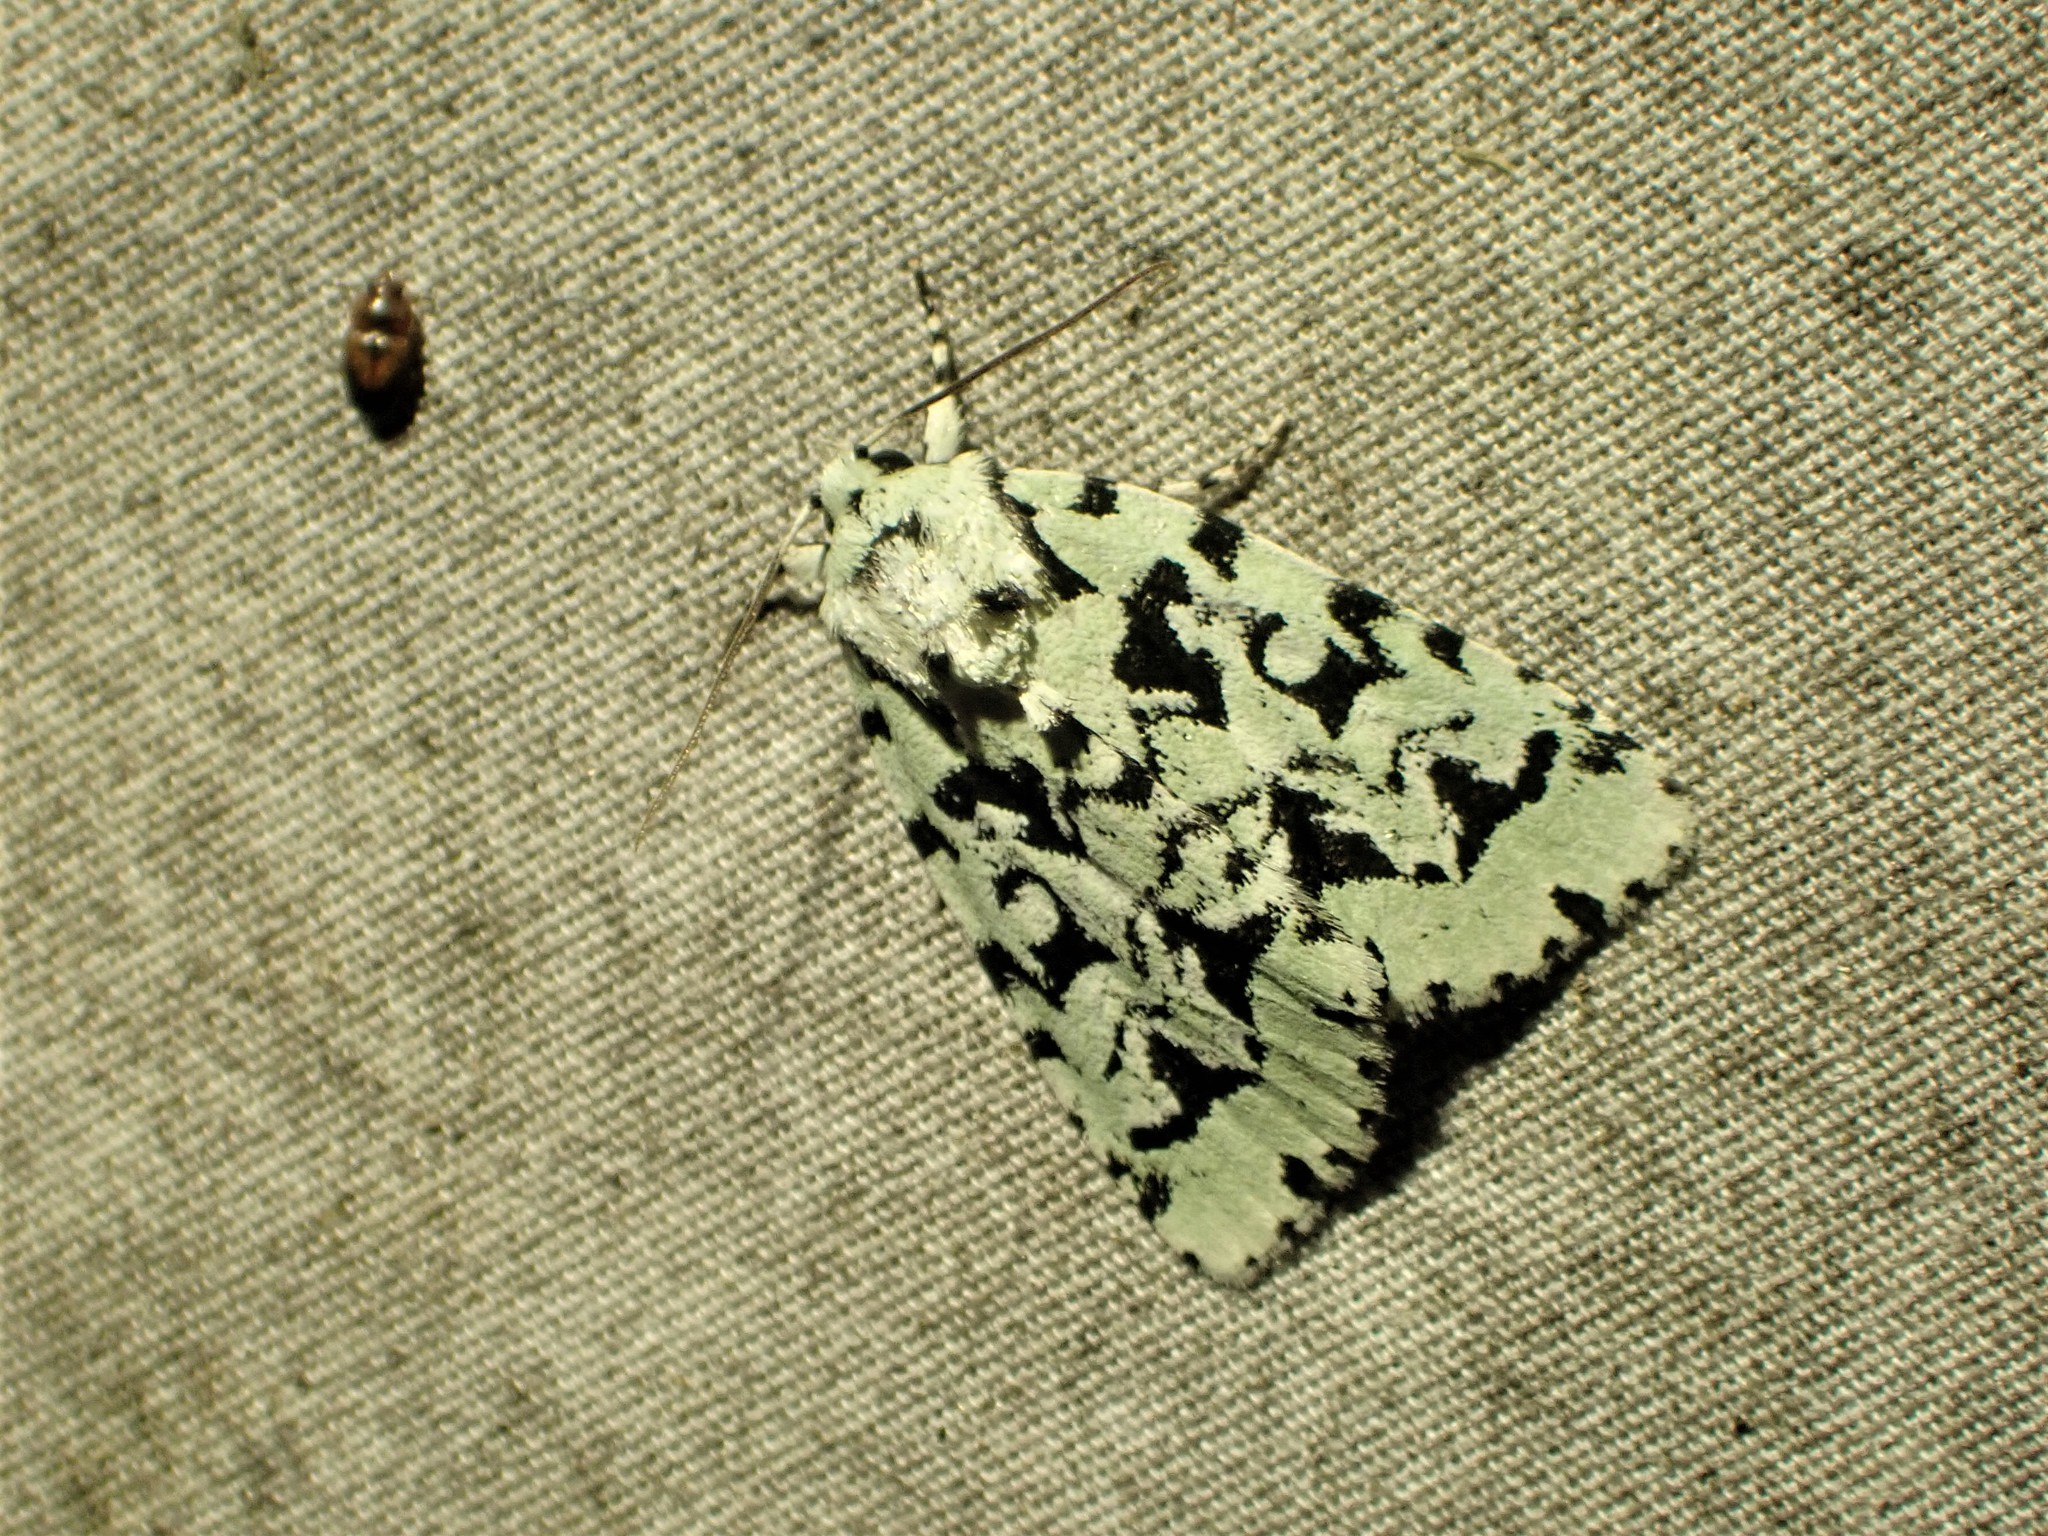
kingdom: Animalia
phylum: Arthropoda
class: Insecta
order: Lepidoptera
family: Noctuidae
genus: Acronicta
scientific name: Acronicta fallax
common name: Green marvel
